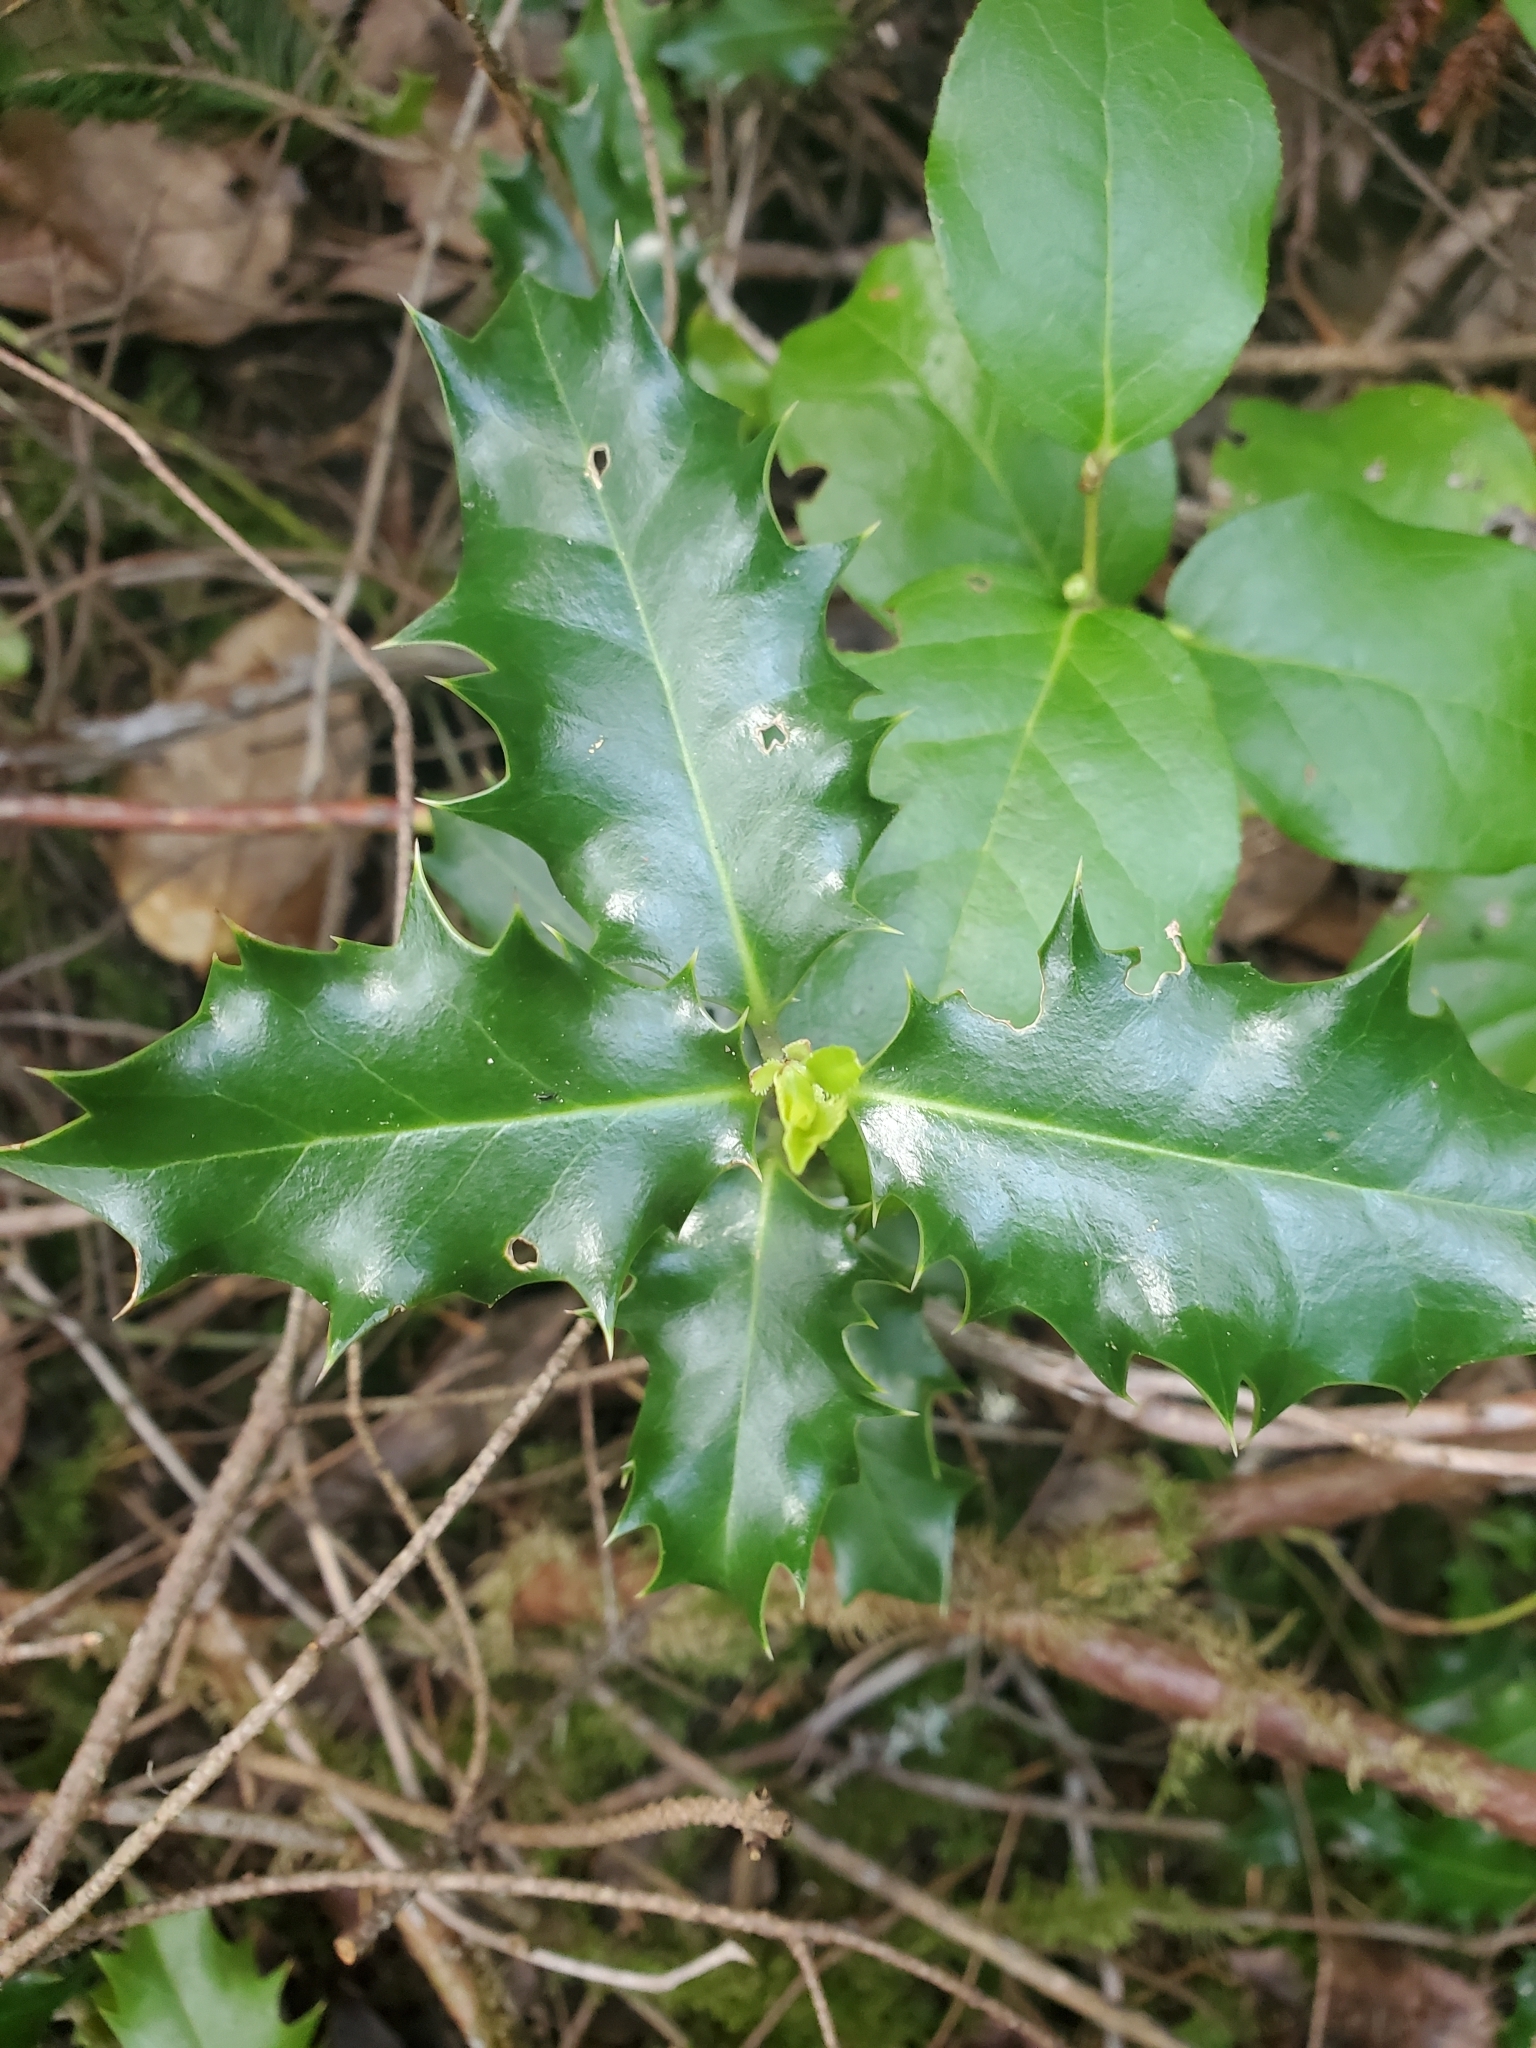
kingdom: Plantae
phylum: Tracheophyta
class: Magnoliopsida
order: Aquifoliales
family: Aquifoliaceae
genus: Ilex
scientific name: Ilex aquifolium
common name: English holly
